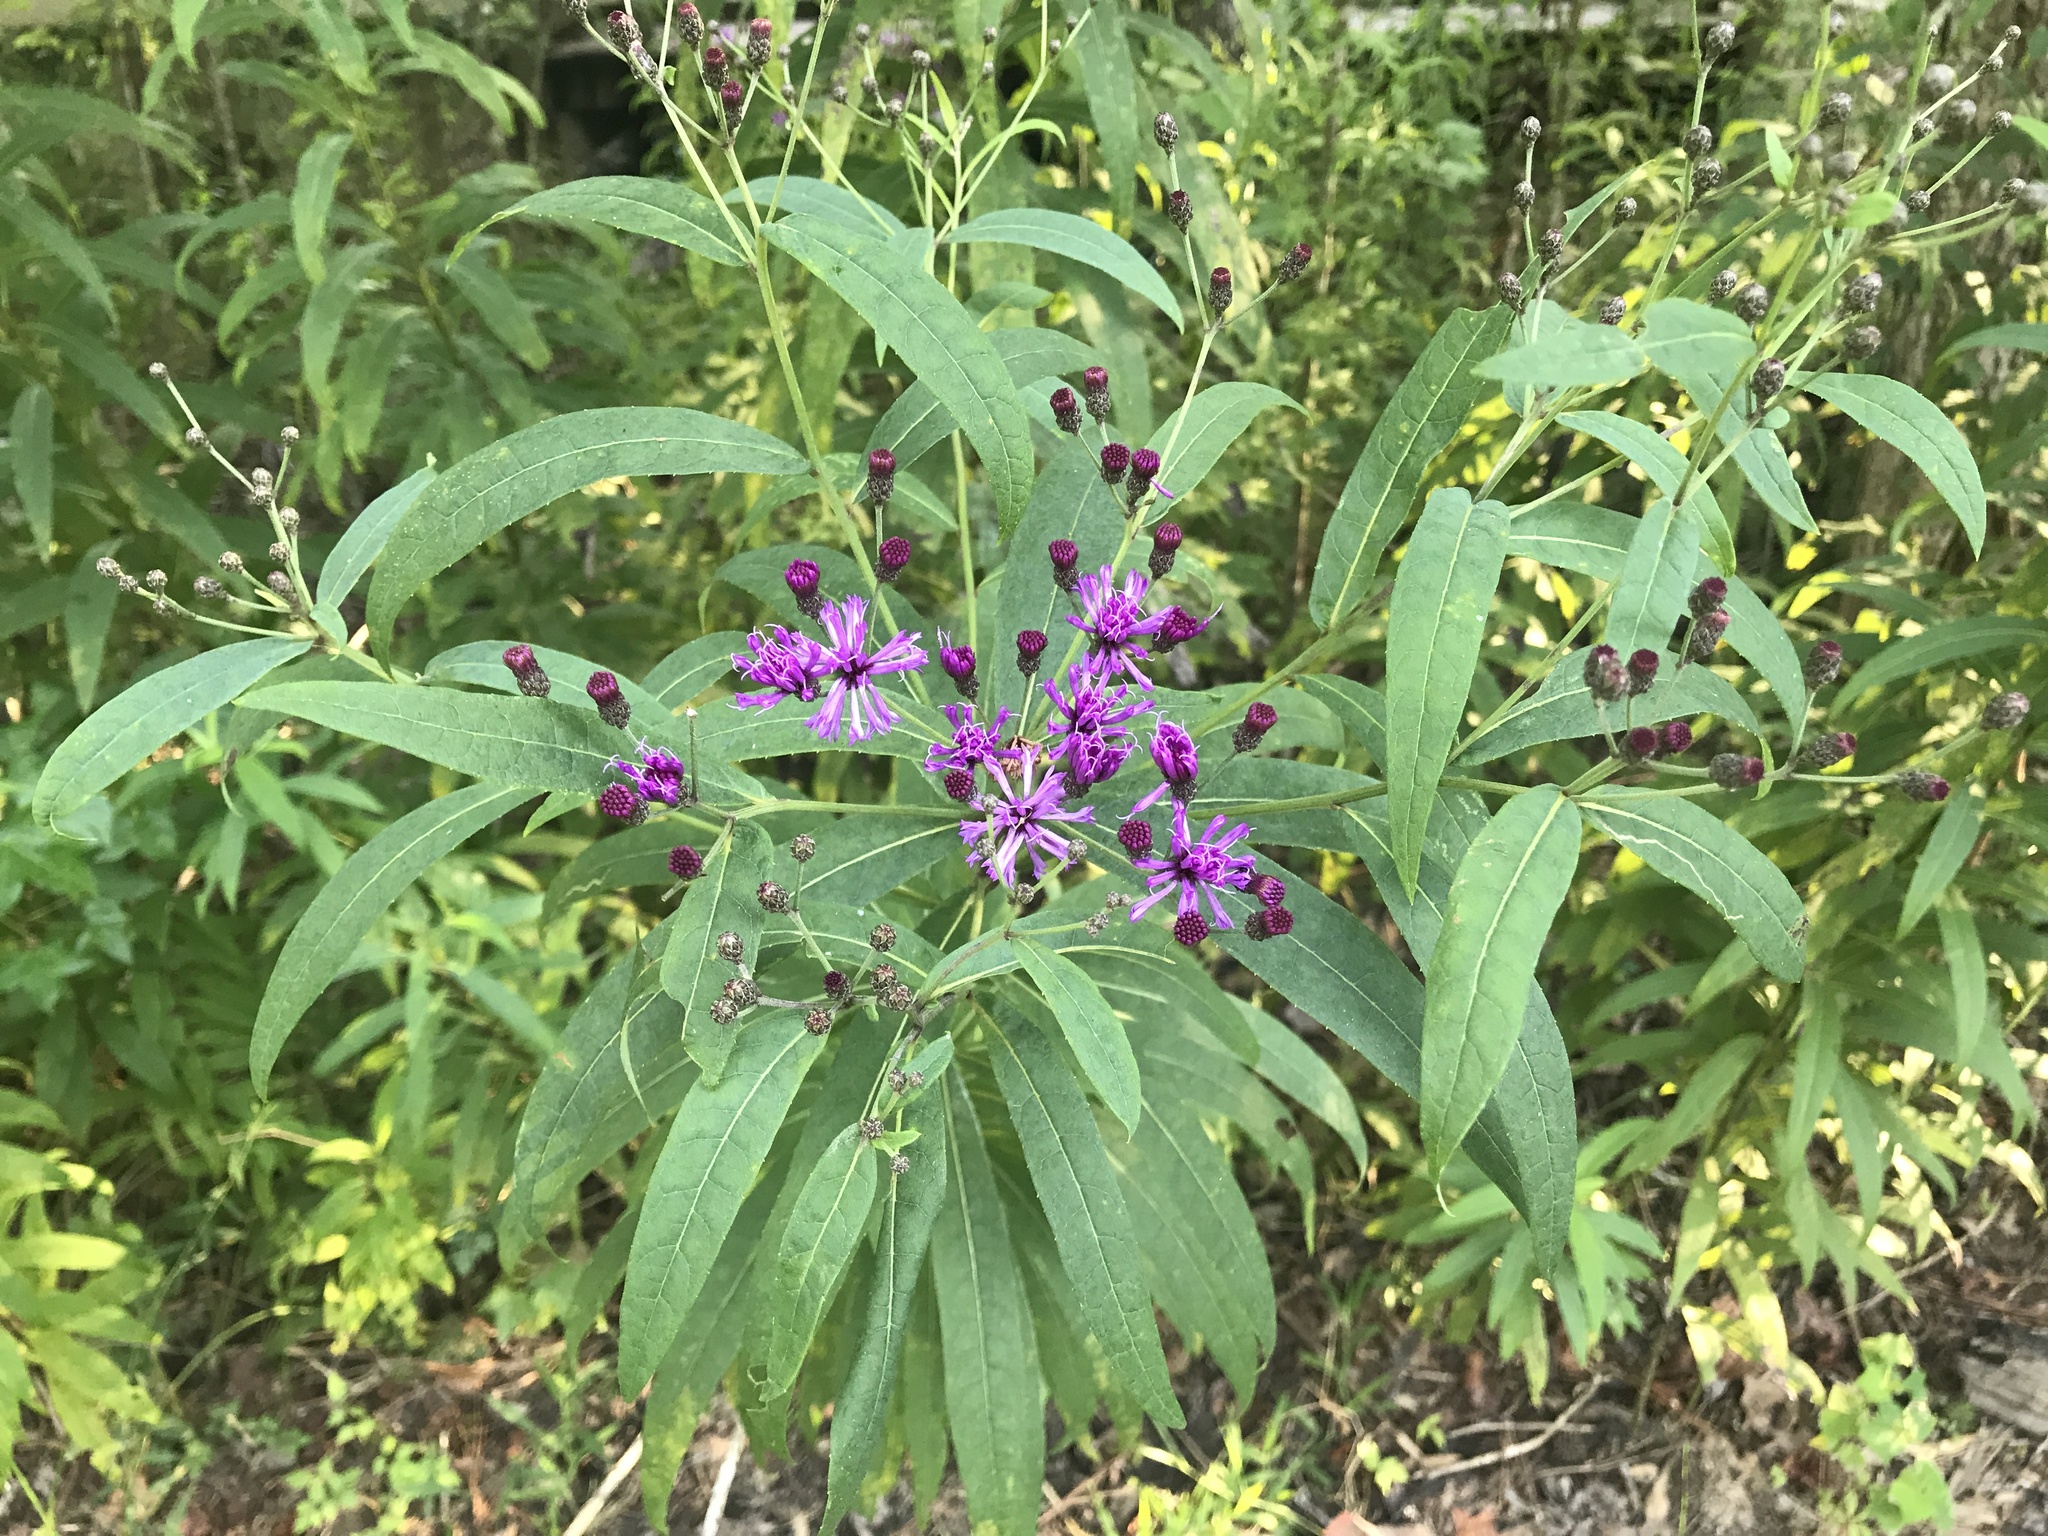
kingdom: Plantae
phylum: Tracheophyta
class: Magnoliopsida
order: Asterales
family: Asteraceae
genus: Vernonia
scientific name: Vernonia gigantea
